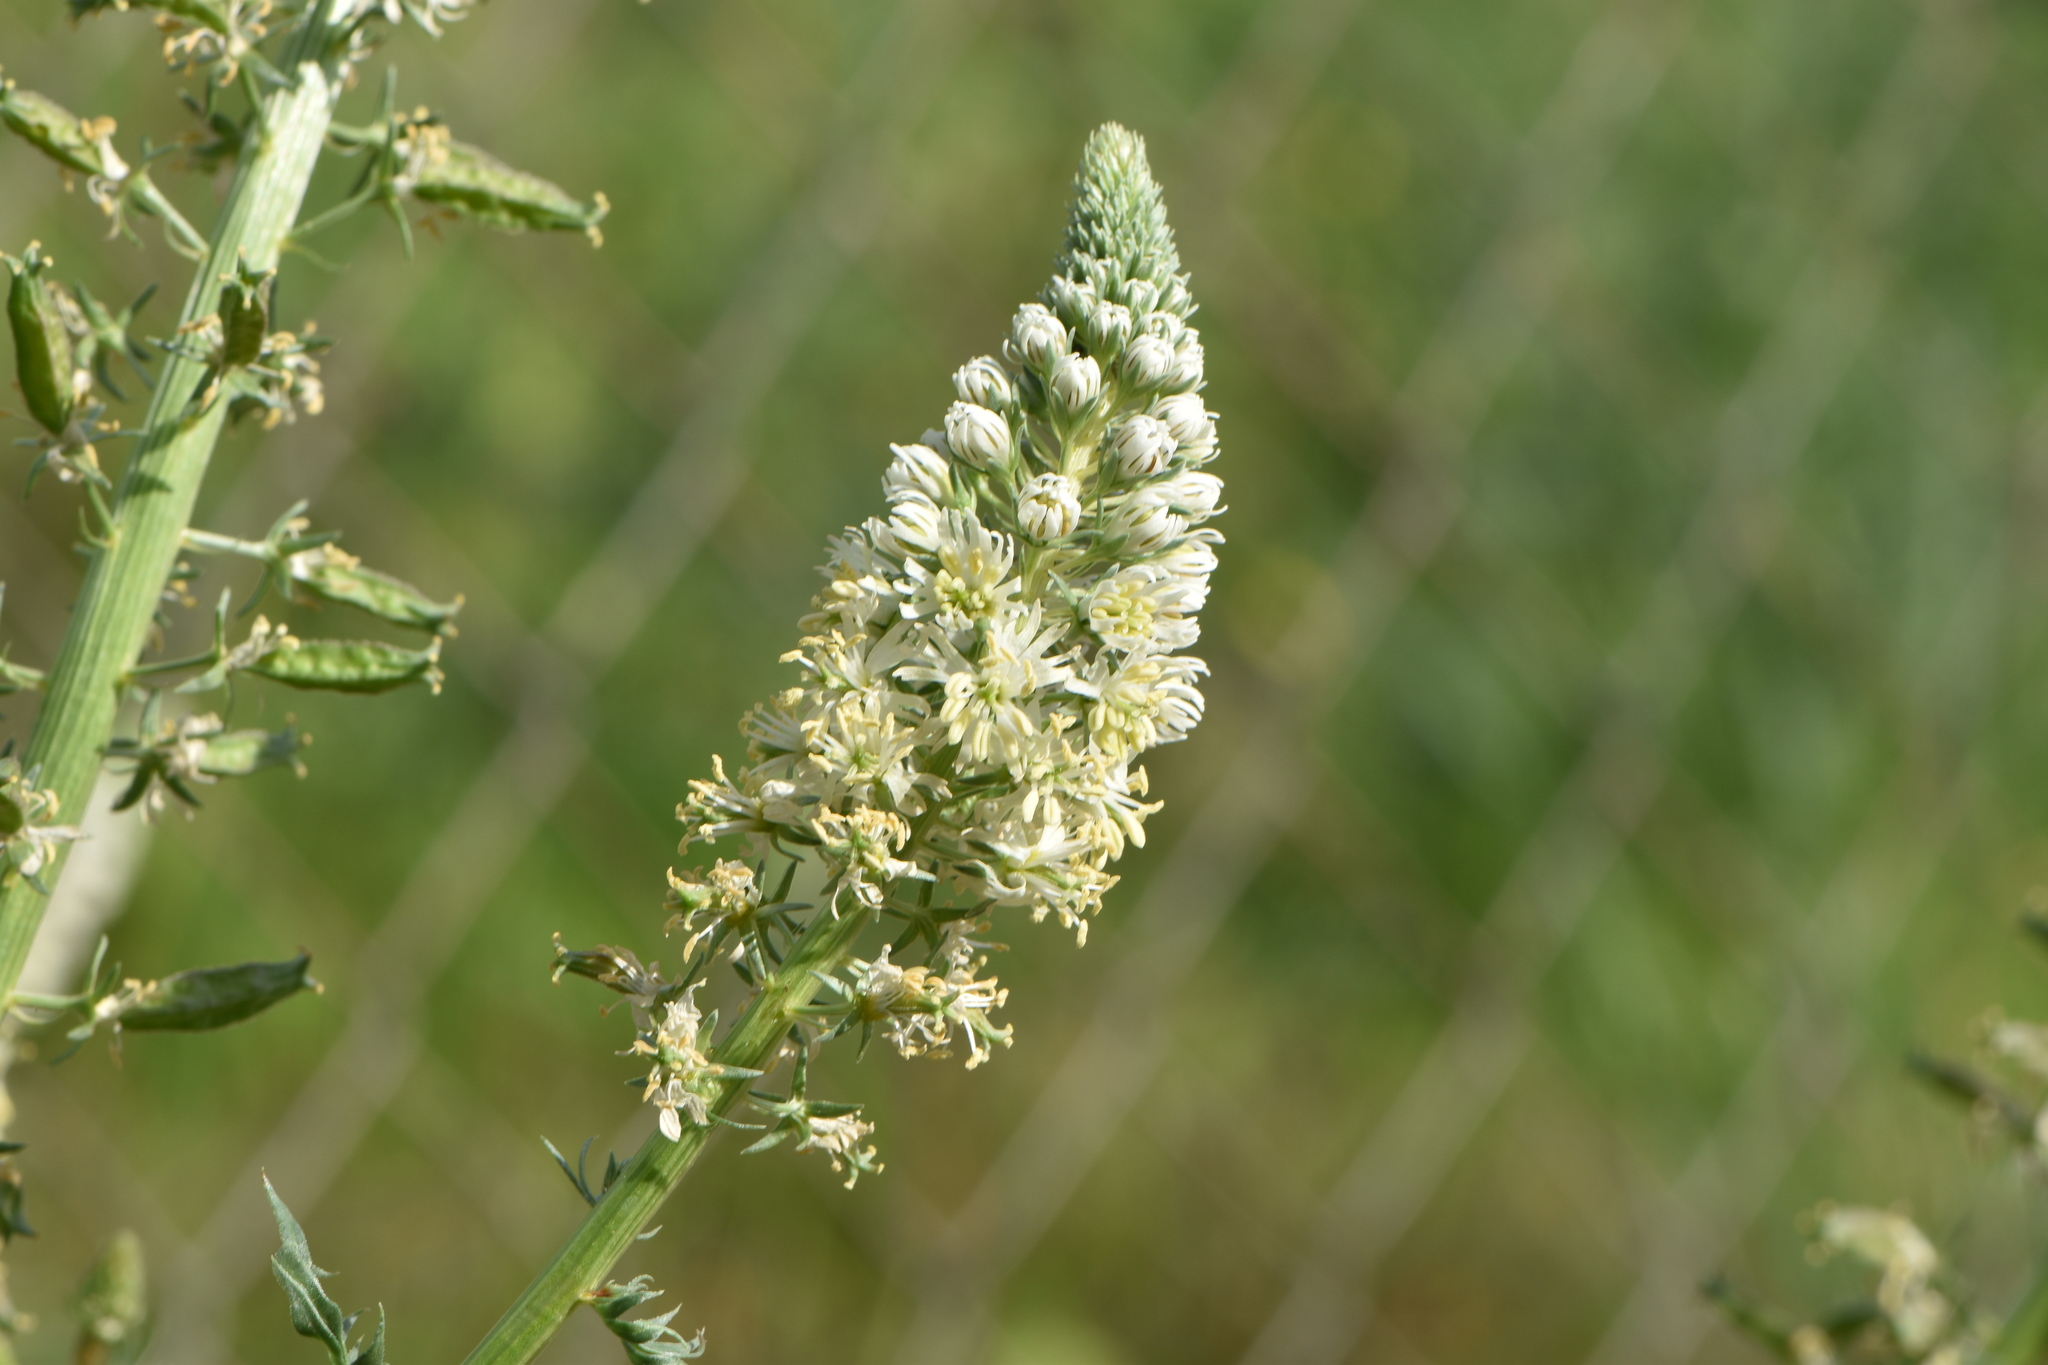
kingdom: Plantae
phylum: Tracheophyta
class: Magnoliopsida
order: Brassicales
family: Resedaceae
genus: Reseda
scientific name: Reseda alba
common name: White mignonette
